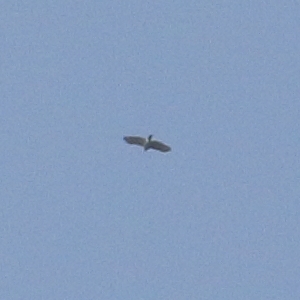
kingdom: Animalia
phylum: Chordata
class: Aves
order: Accipitriformes
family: Accipitridae
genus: Accipiter
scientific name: Accipiter tachiro
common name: African goshawk
